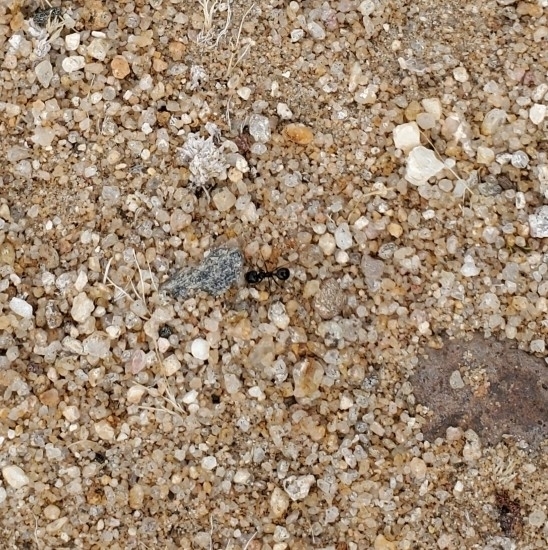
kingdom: Animalia
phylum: Arthropoda
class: Insecta
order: Hymenoptera
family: Formicidae
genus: Messor
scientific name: Messor pergandei
